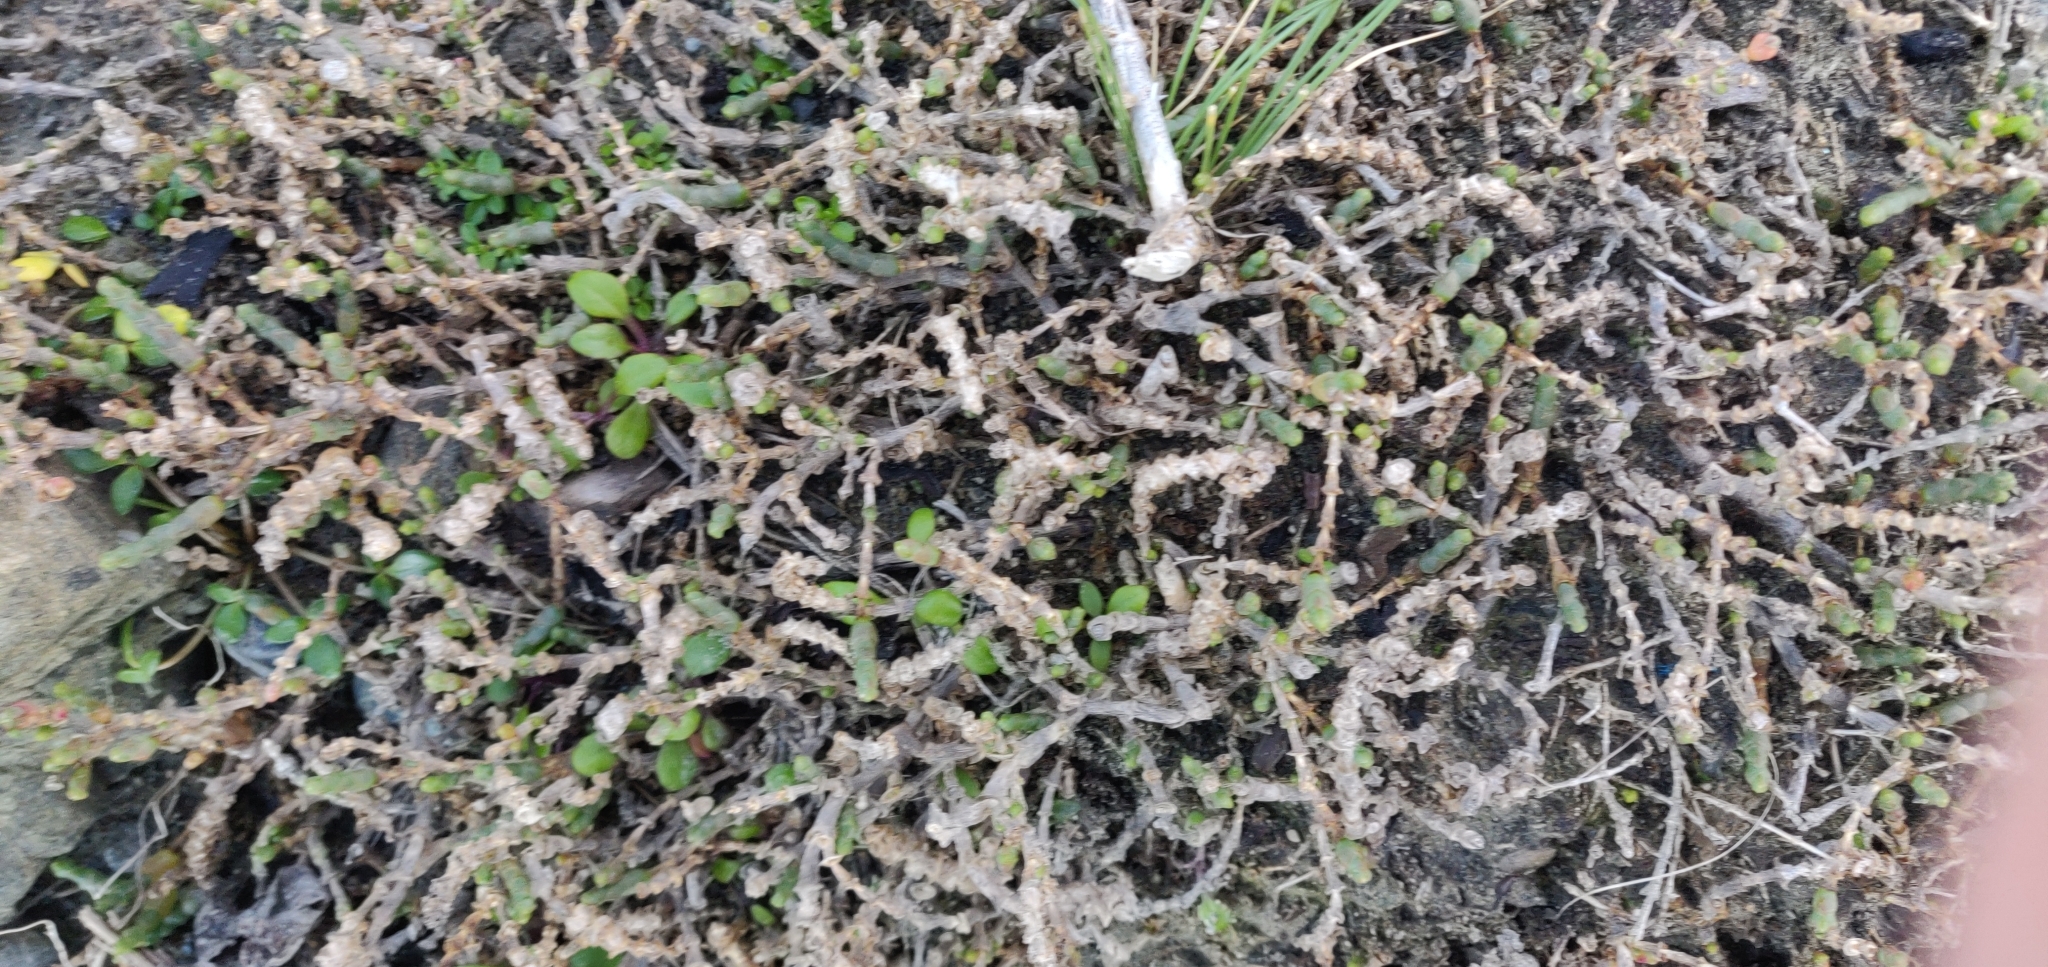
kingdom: Plantae
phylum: Tracheophyta
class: Magnoliopsida
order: Caryophyllales
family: Amaranthaceae
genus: Salicornia
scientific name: Salicornia quinqueflora
